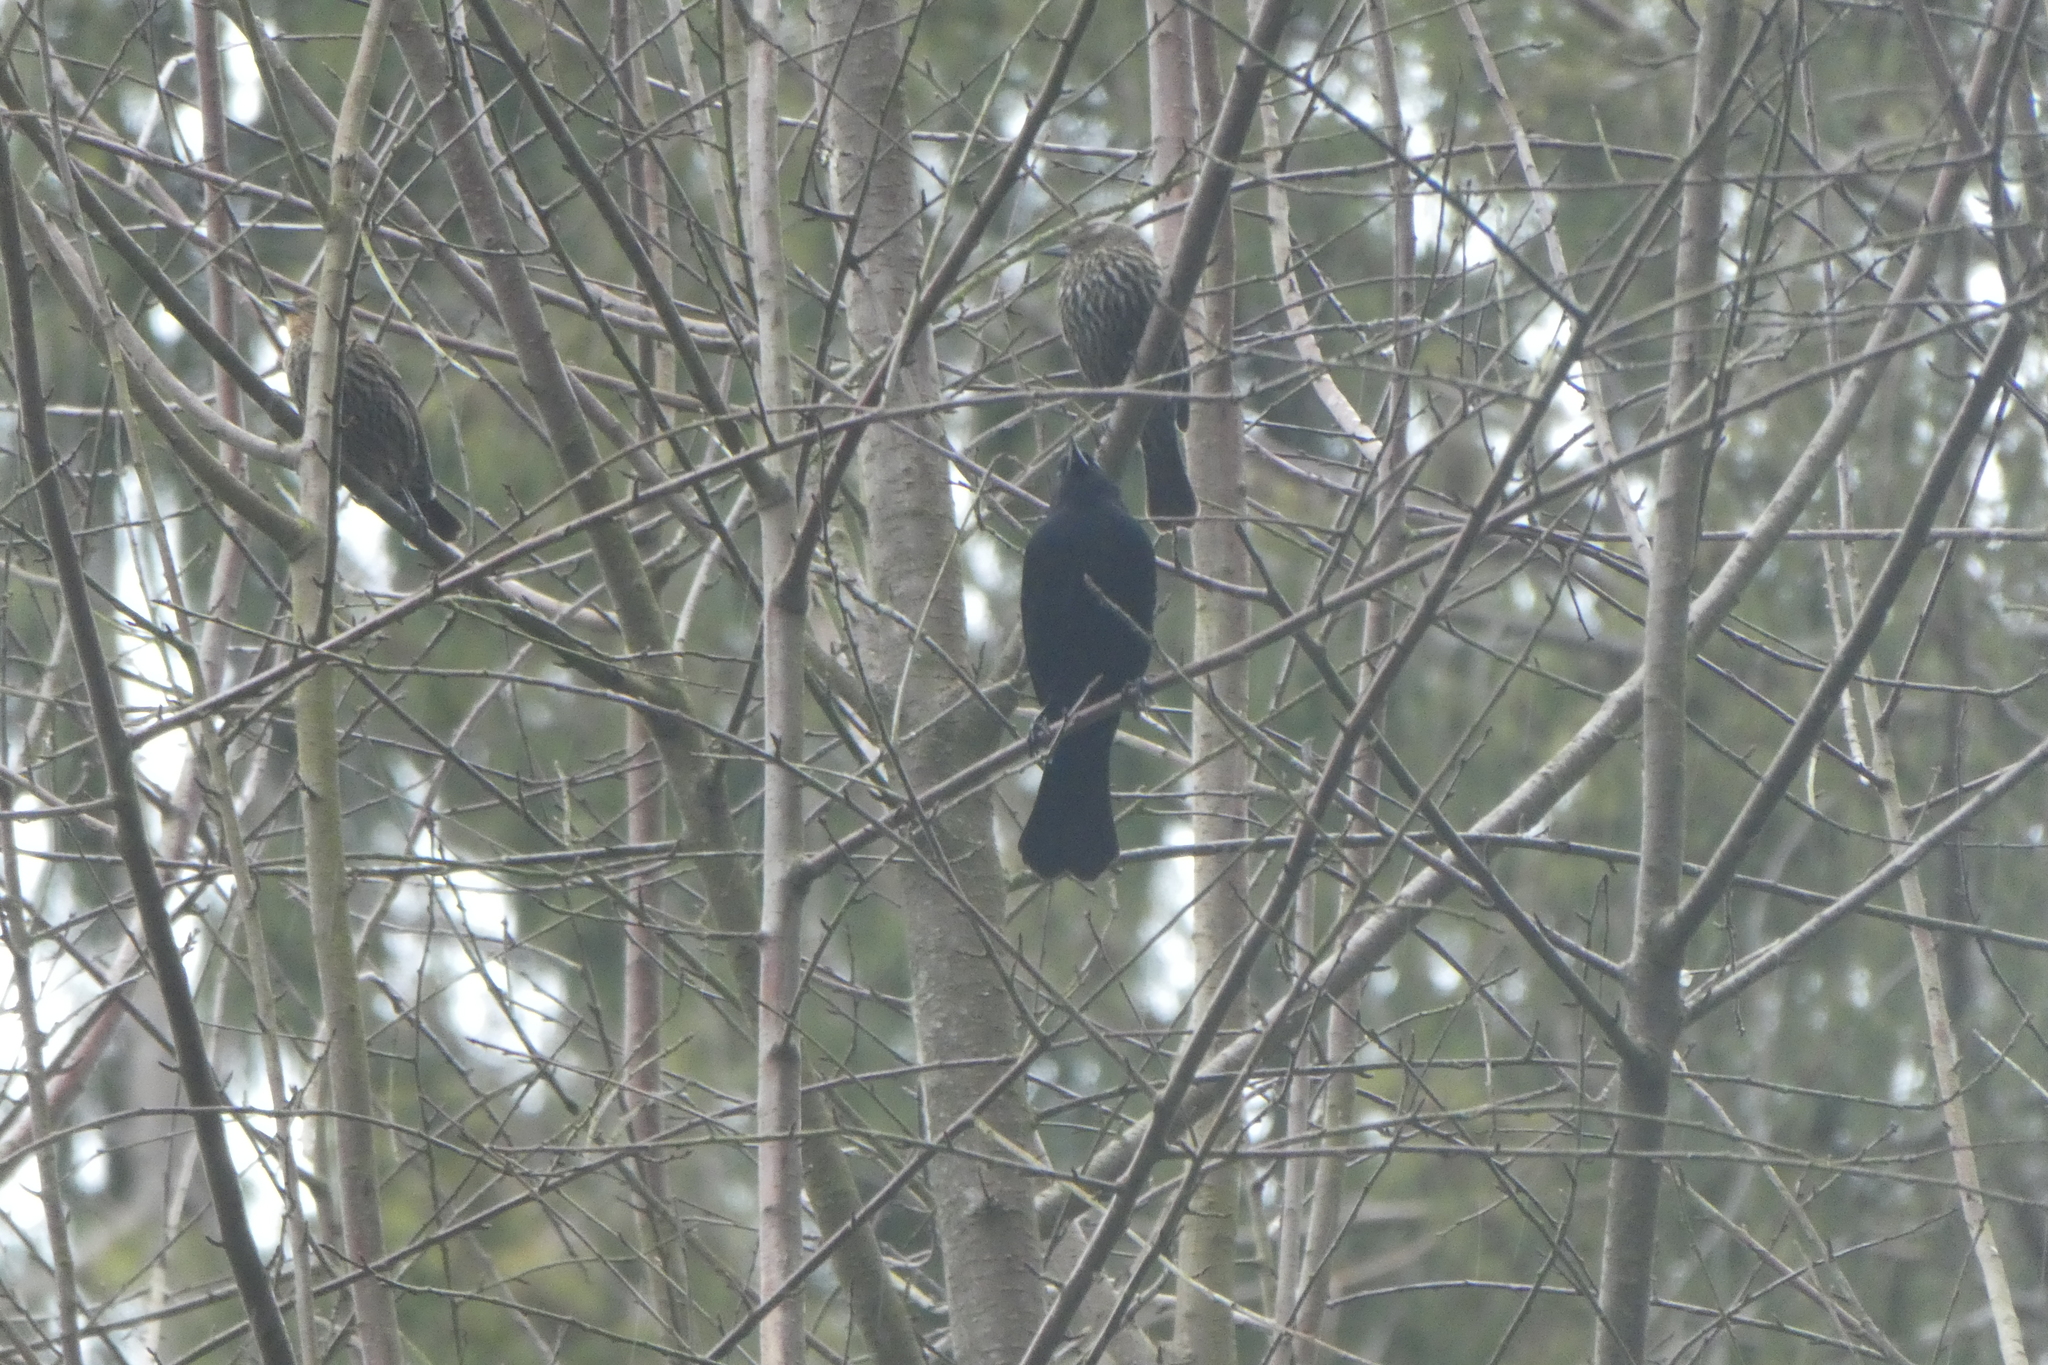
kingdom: Animalia
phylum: Chordata
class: Aves
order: Passeriformes
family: Icteridae
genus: Agelaius
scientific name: Agelaius phoeniceus
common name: Red-winged blackbird
